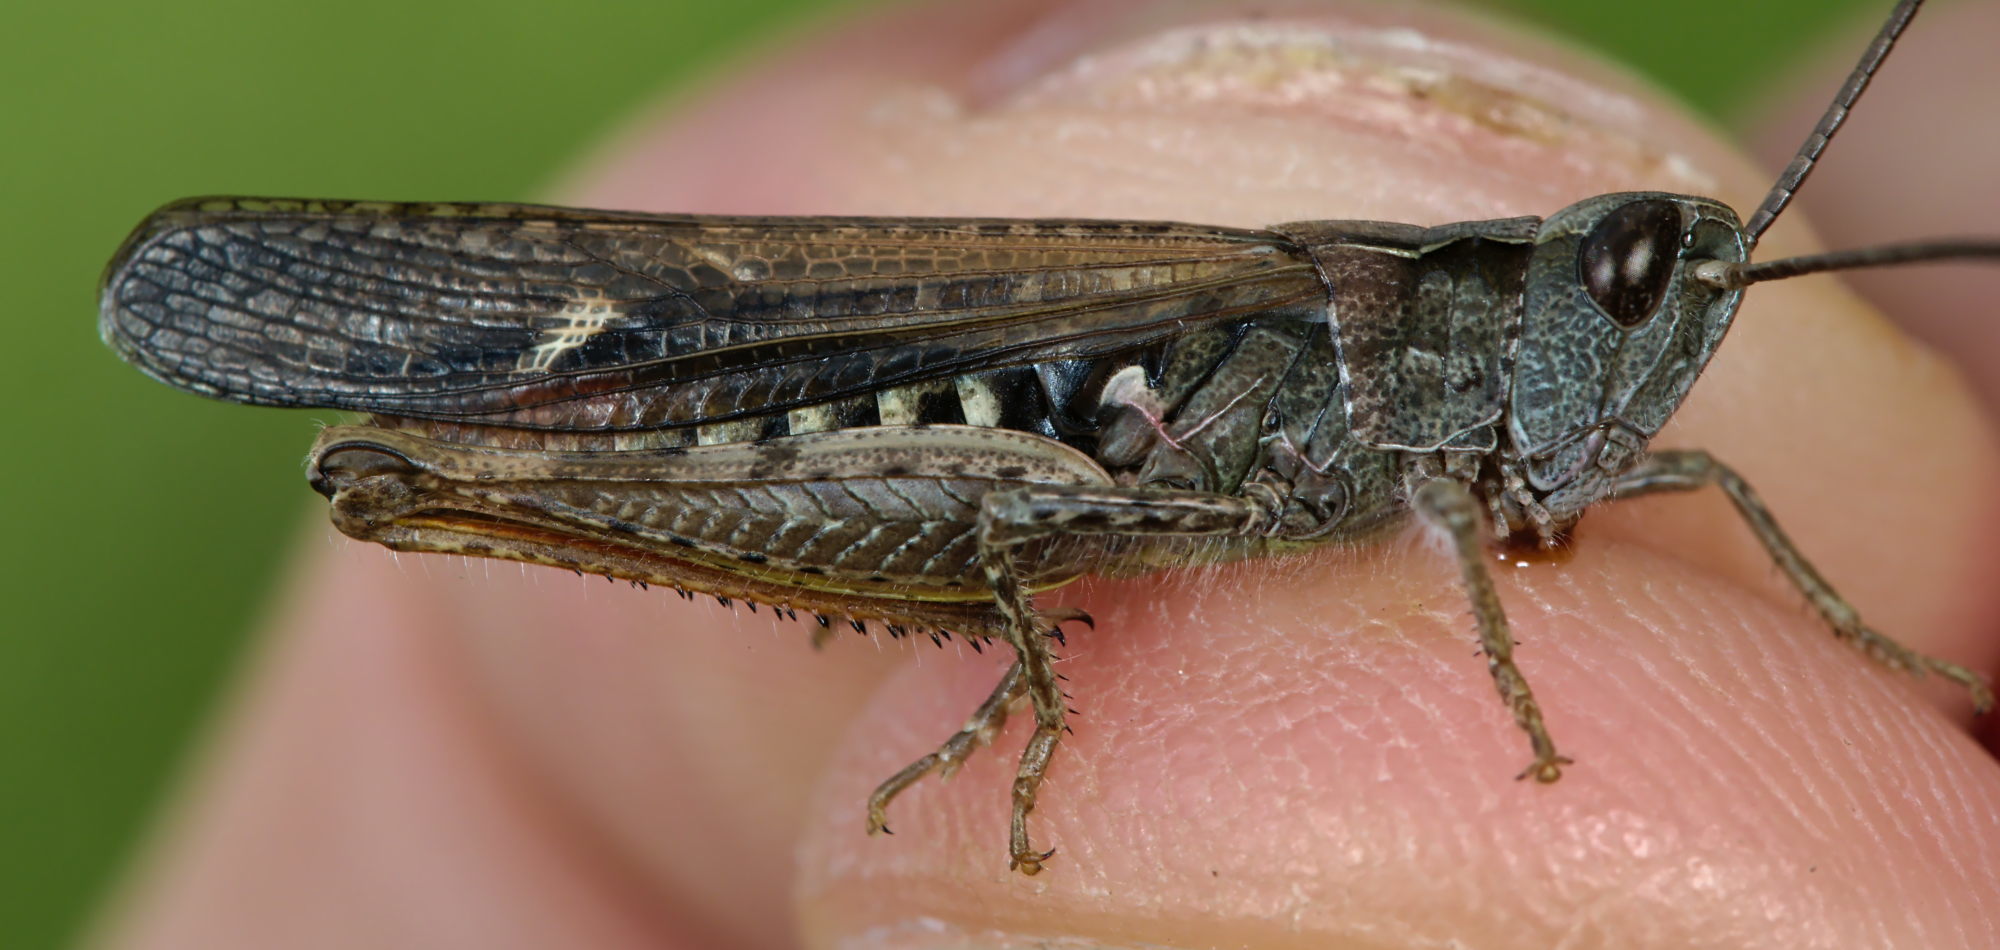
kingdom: Animalia
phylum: Arthropoda
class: Insecta
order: Orthoptera
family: Acrididae
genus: Chorthippus
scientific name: Chorthippus brunneus
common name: Field grasshopper
